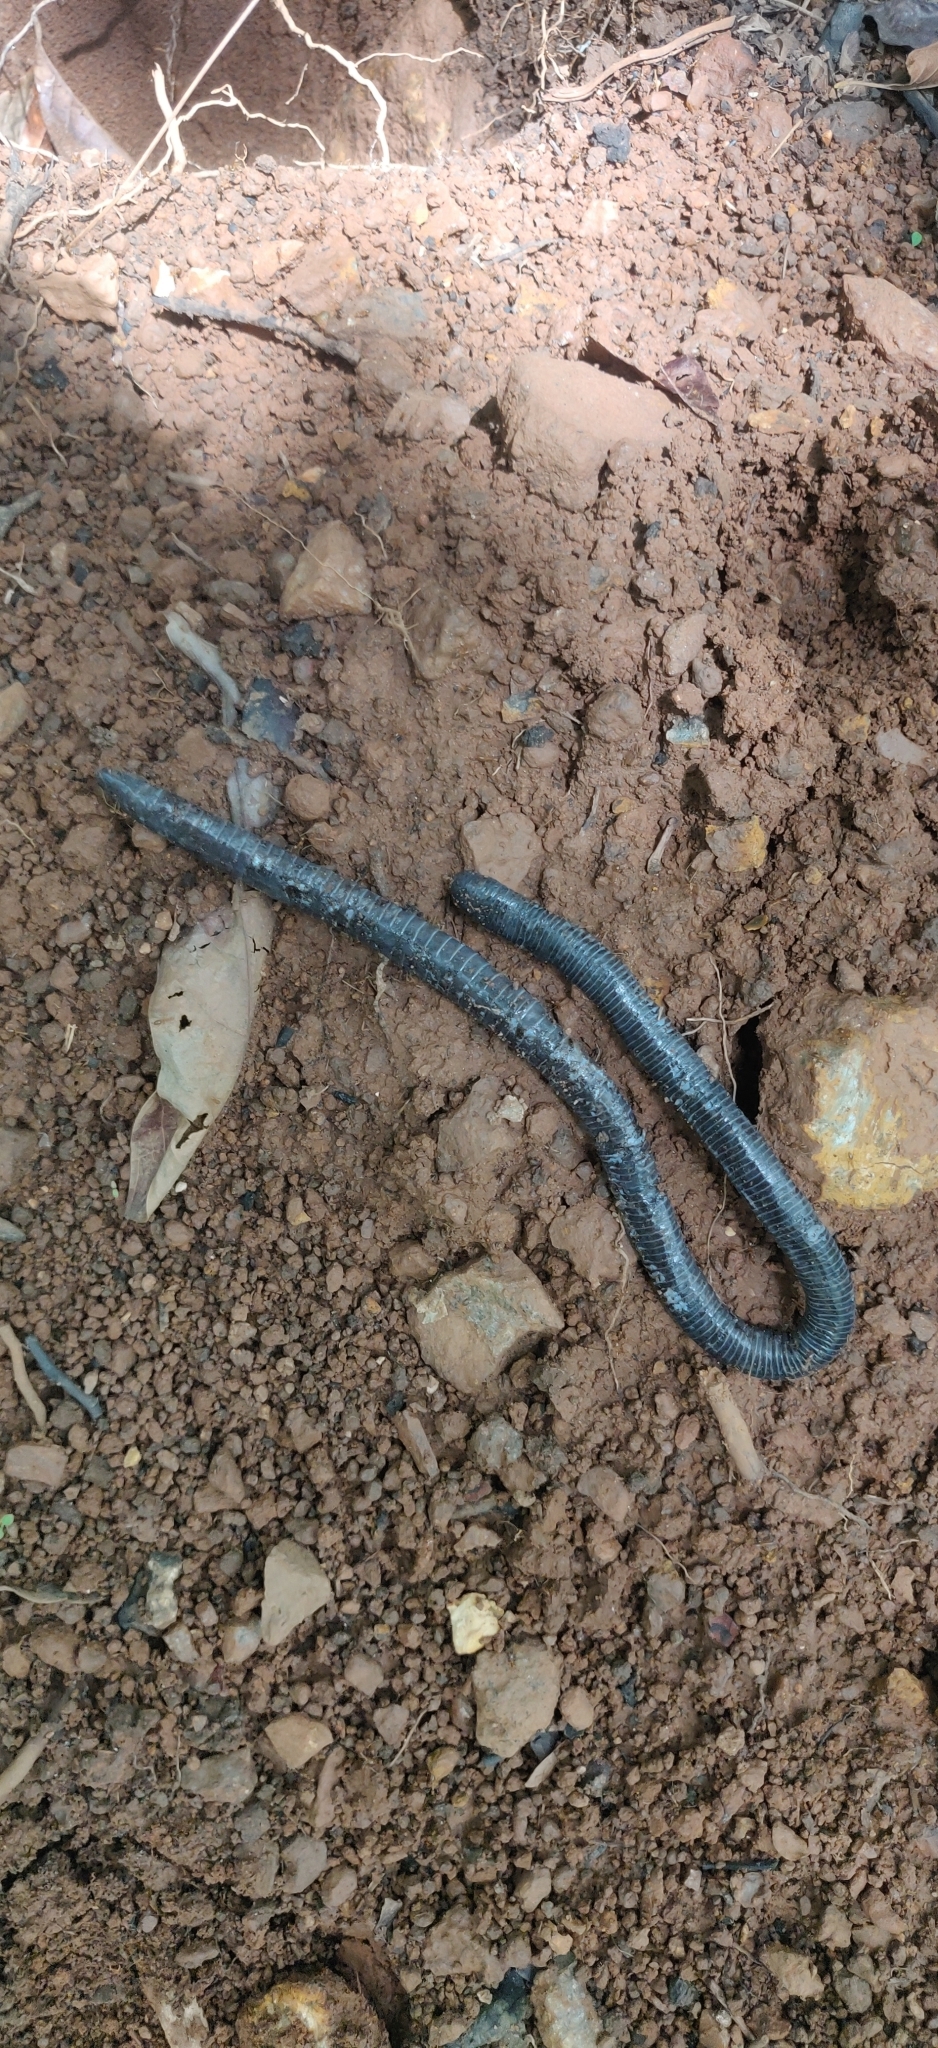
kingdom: Animalia
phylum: Chordata
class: Amphibia
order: Gymnophiona
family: Indotyphlidae
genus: Gegeneophis
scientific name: Gegeneophis danieli
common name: Daniel's caecilian
